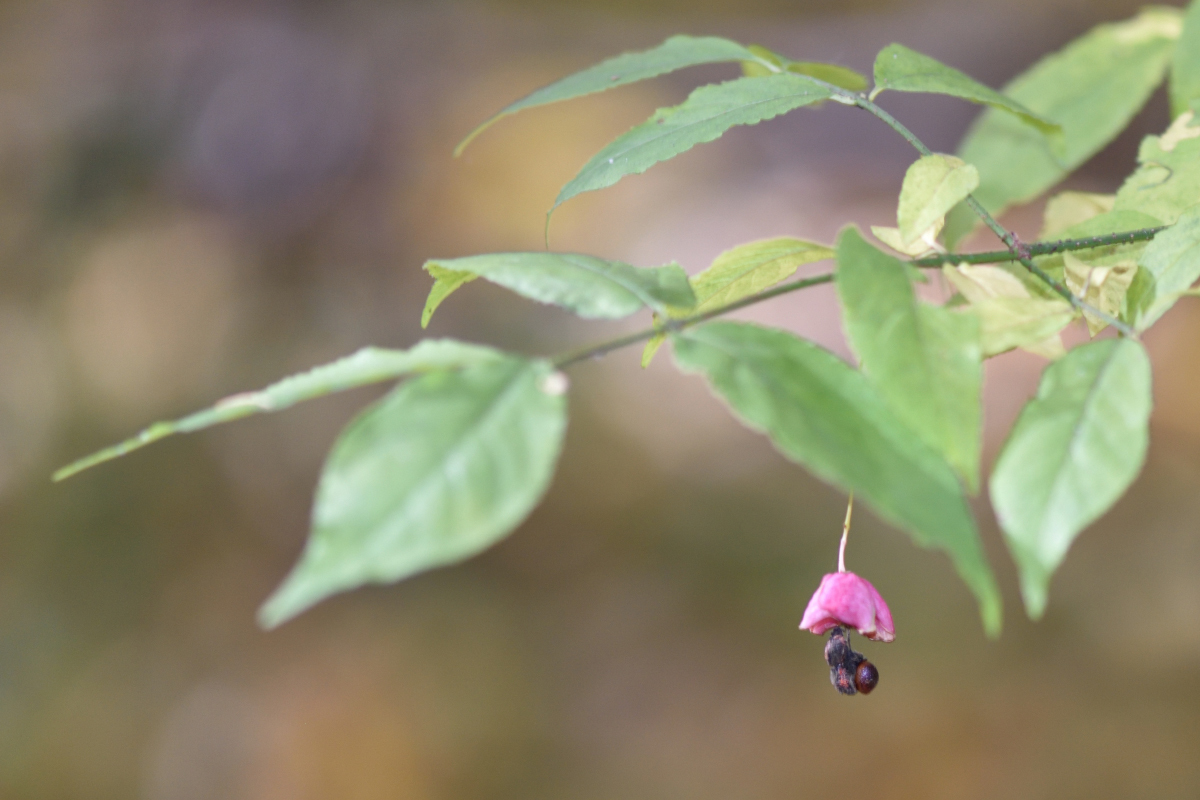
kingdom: Plantae
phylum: Tracheophyta
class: Magnoliopsida
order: Celastrales
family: Celastraceae
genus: Euonymus
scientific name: Euonymus verrucosus
